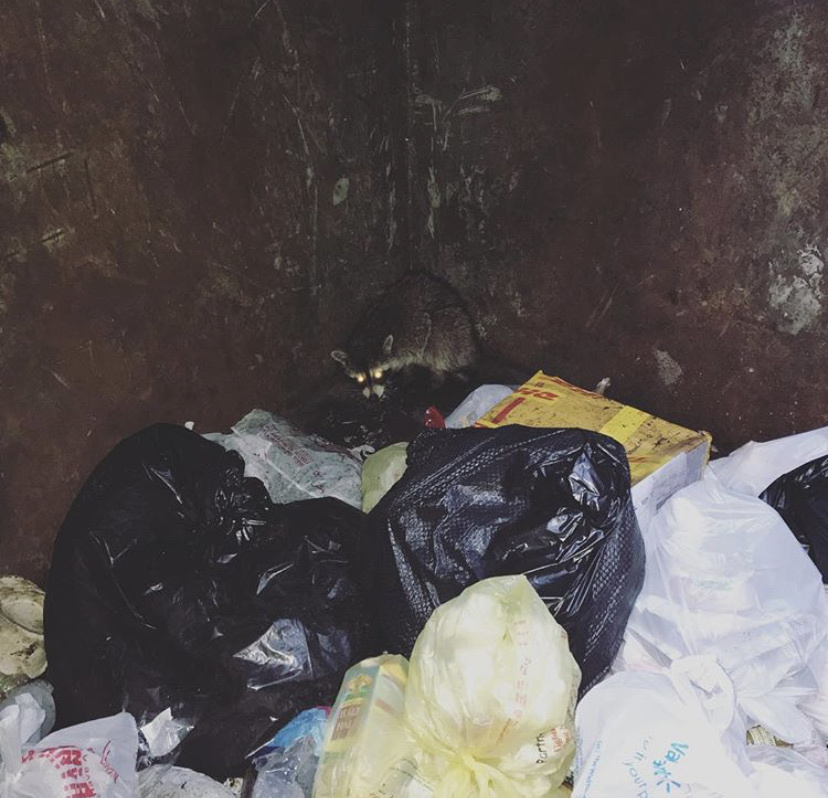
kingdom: Animalia
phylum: Chordata
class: Mammalia
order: Carnivora
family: Procyonidae
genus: Procyon
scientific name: Procyon lotor
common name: Raccoon
